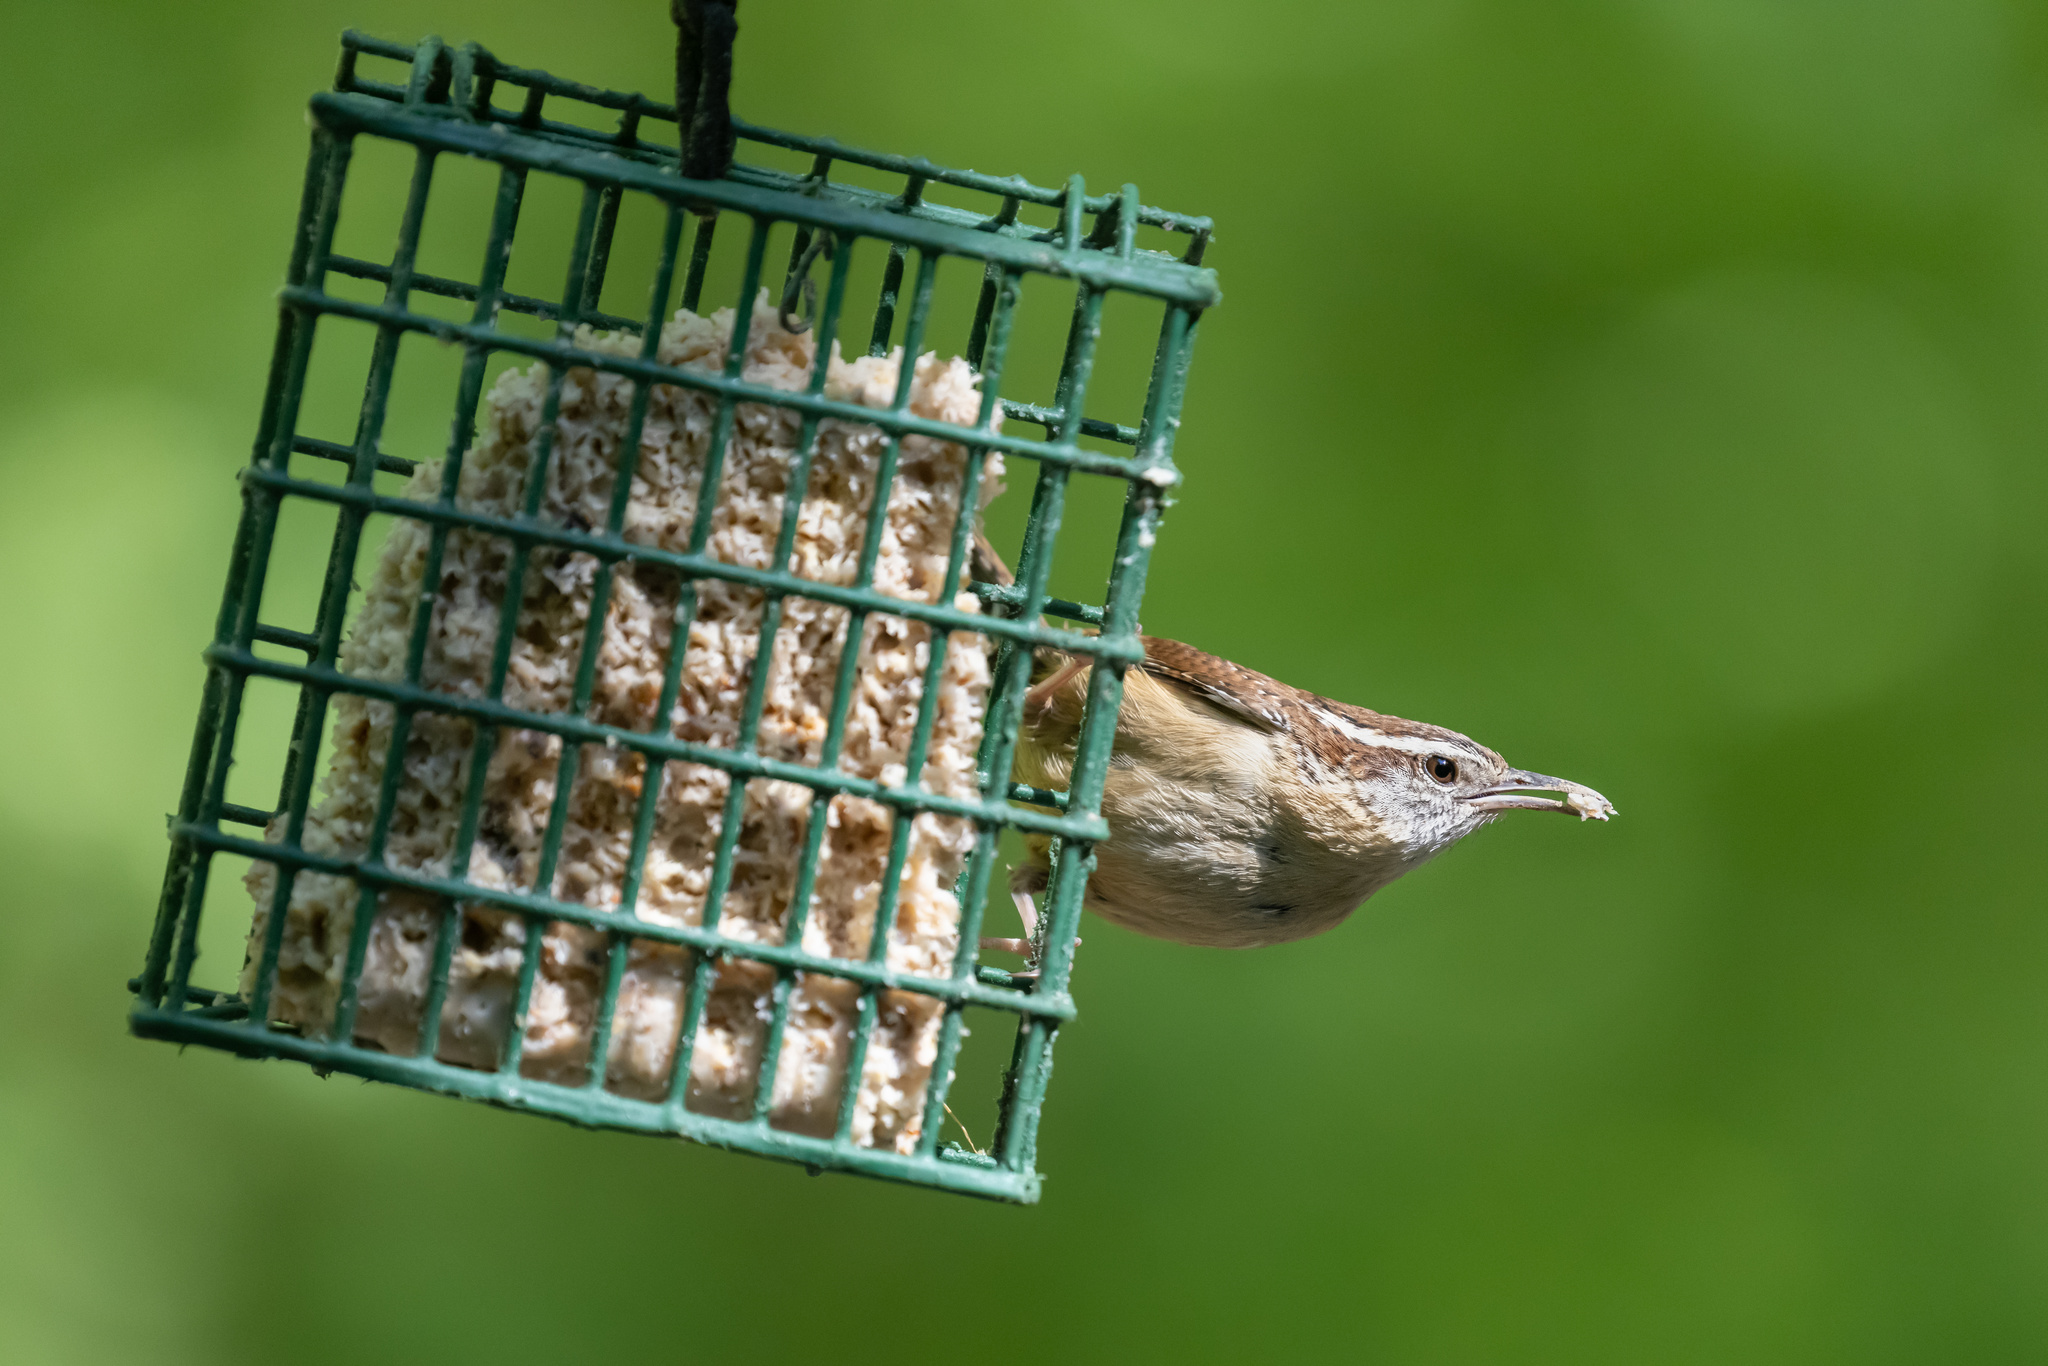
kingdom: Animalia
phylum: Chordata
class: Aves
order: Passeriformes
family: Troglodytidae
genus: Thryothorus
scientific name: Thryothorus ludovicianus
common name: Carolina wren
